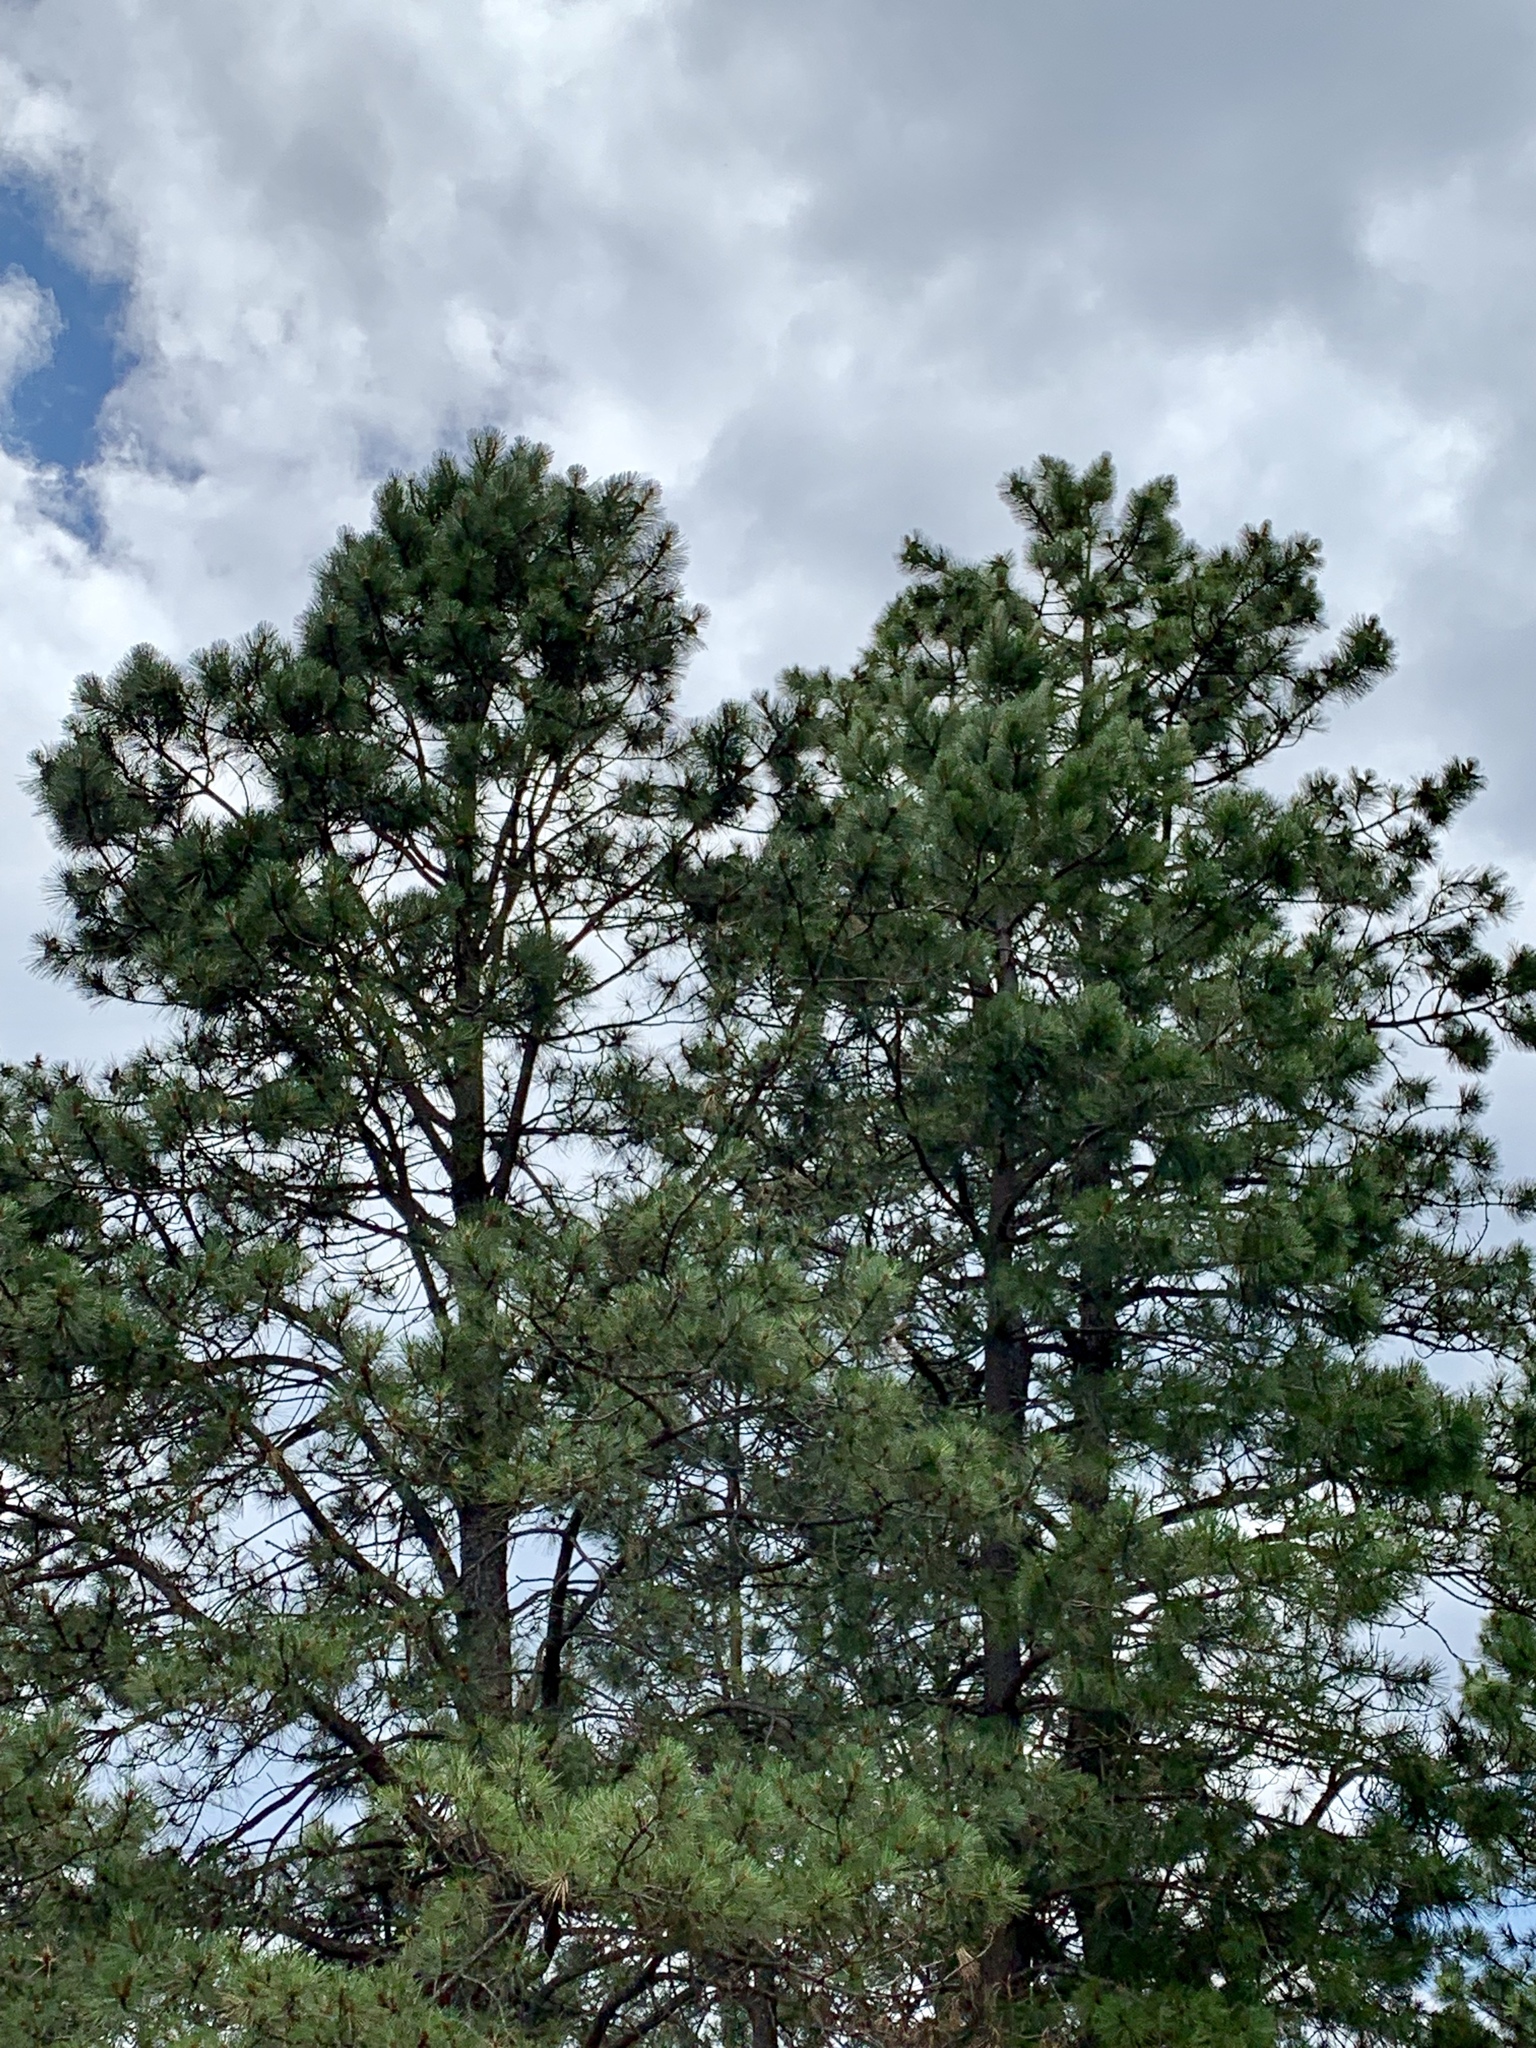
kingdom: Plantae
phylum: Tracheophyta
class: Pinopsida
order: Pinales
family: Pinaceae
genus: Pinus
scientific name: Pinus ponderosa
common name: Western yellow-pine
